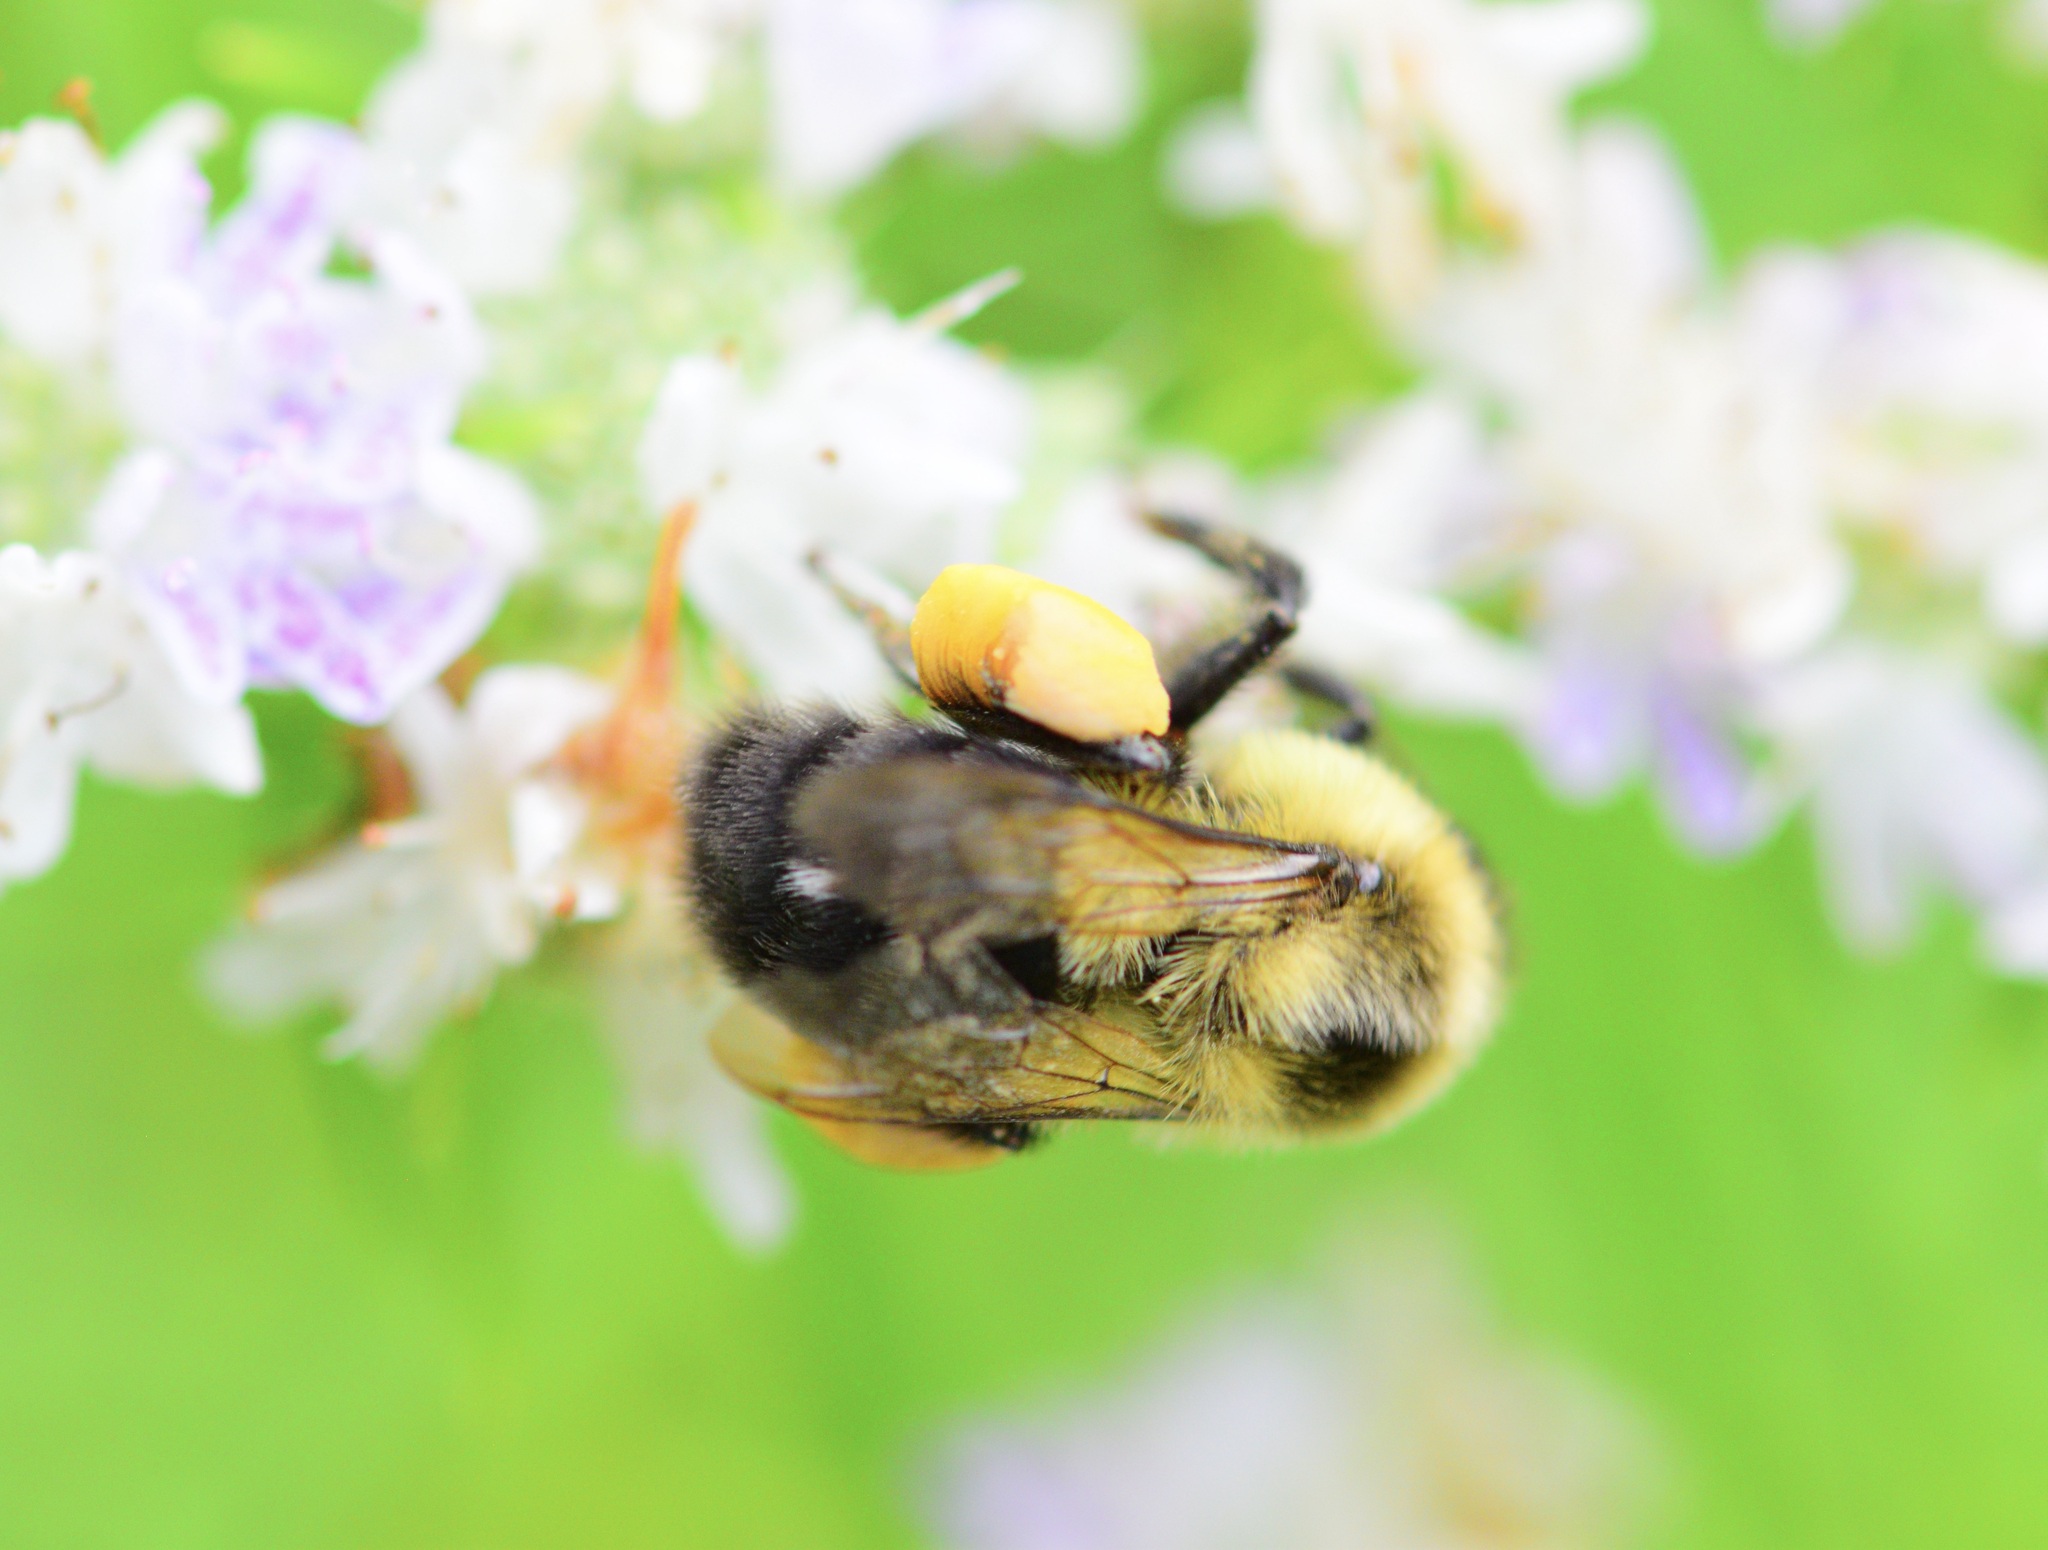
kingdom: Animalia
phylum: Arthropoda
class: Insecta
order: Hymenoptera
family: Apidae
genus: Bombus
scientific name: Bombus impatiens
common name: Common eastern bumble bee
